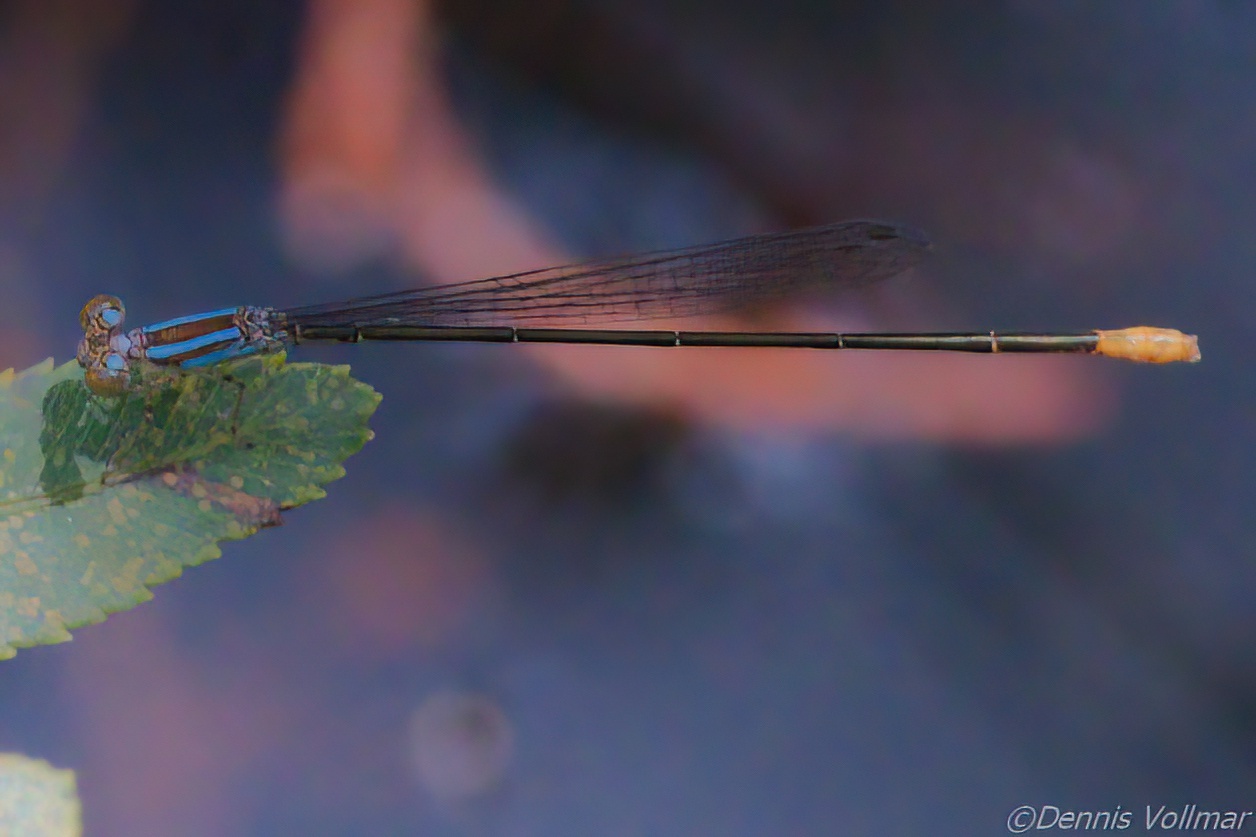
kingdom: Animalia
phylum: Arthropoda
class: Insecta
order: Odonata
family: Coenagrionidae
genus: Leptobasis
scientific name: Leptobasis lucifer
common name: Lucifer swampdamsel
